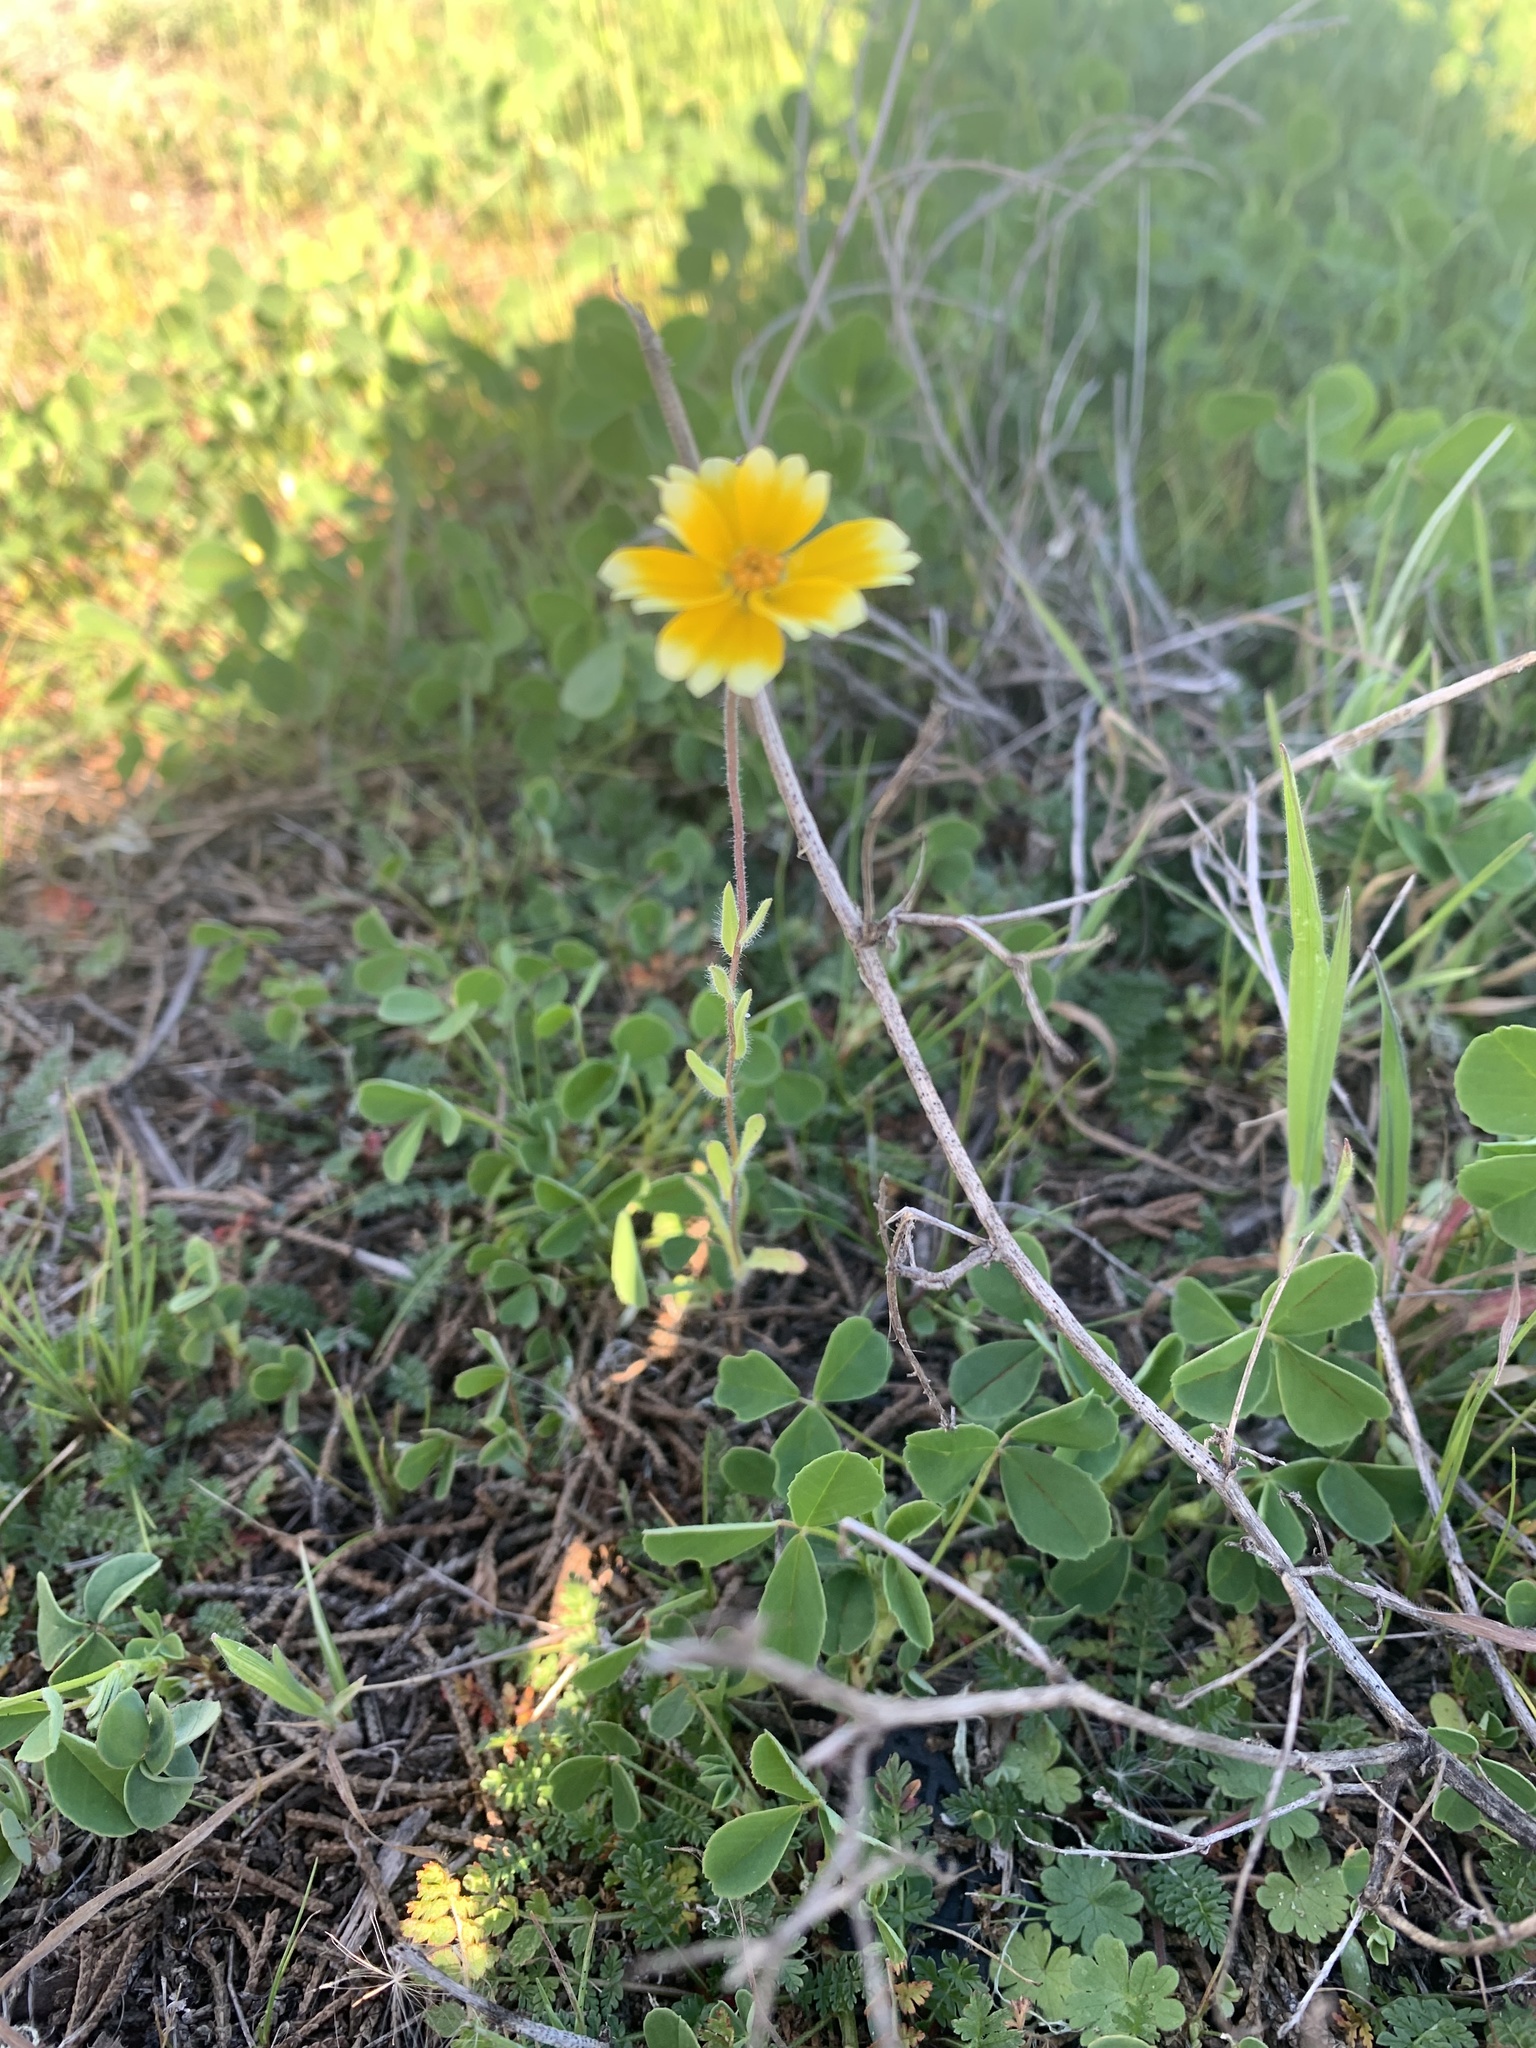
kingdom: Plantae
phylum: Tracheophyta
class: Magnoliopsida
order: Asterales
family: Asteraceae
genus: Layia
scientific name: Layia platyglossa
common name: Tidy-tips
